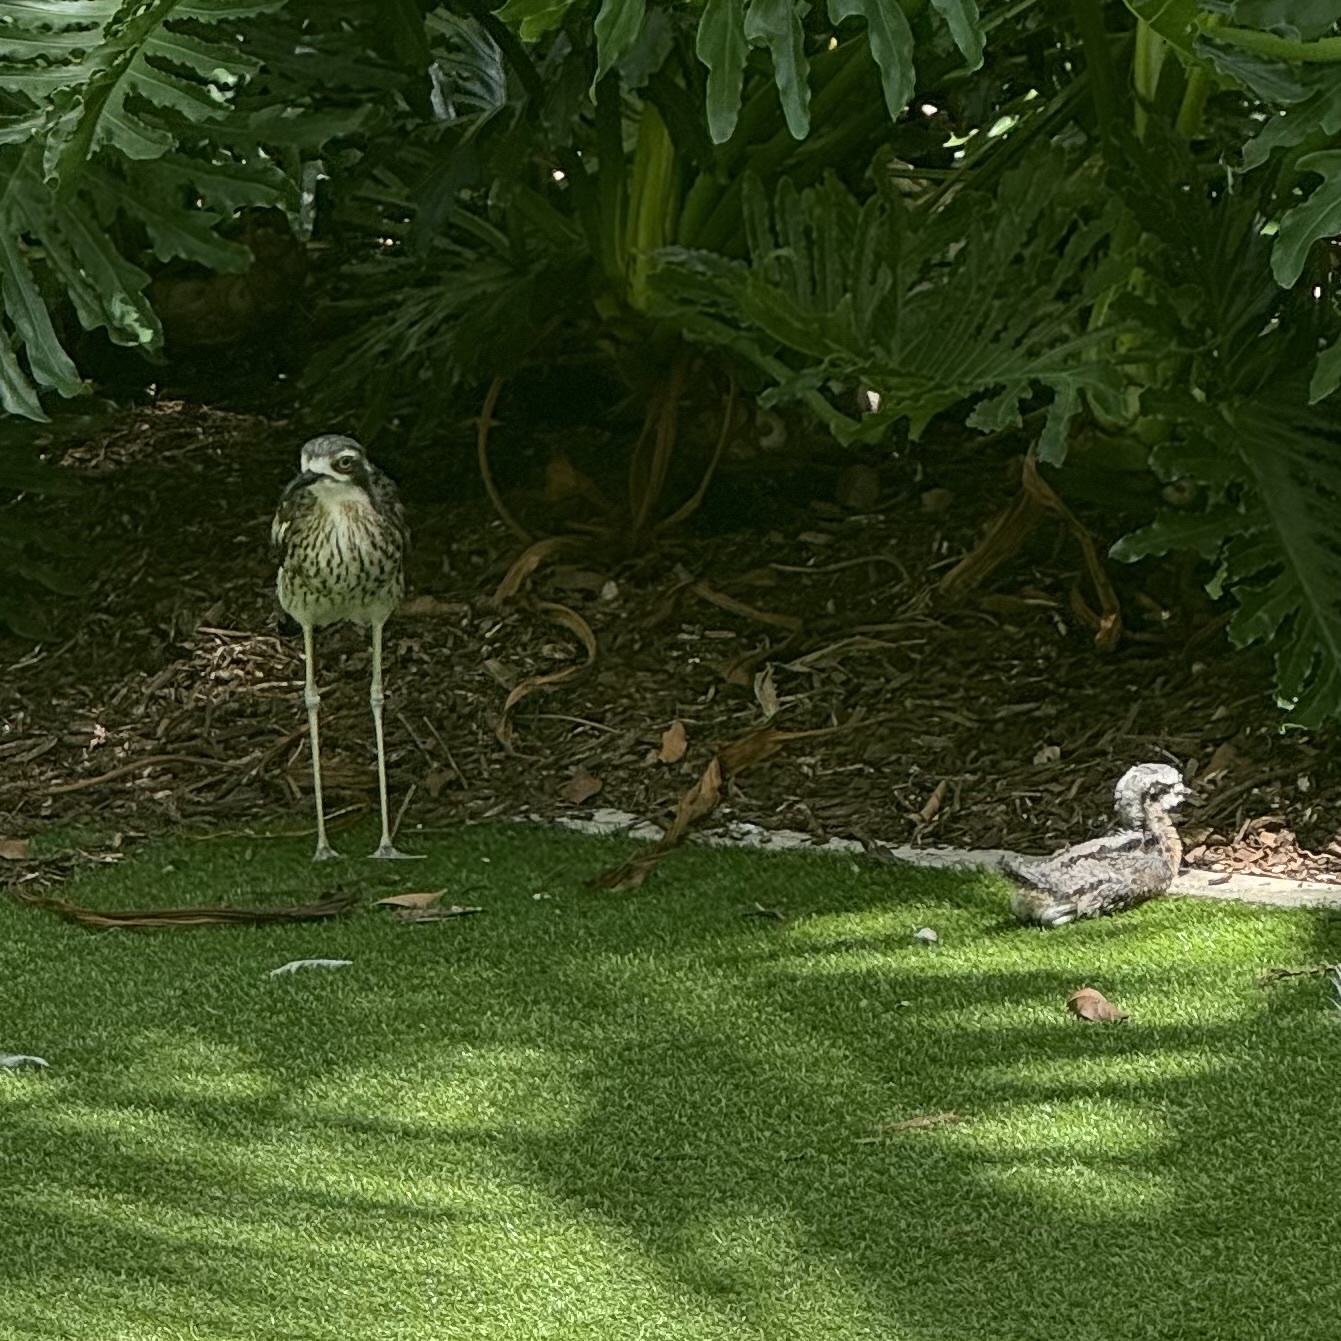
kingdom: Animalia
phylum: Chordata
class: Aves
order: Charadriiformes
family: Burhinidae
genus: Burhinus
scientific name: Burhinus grallarius
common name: Bush stone-curlew
